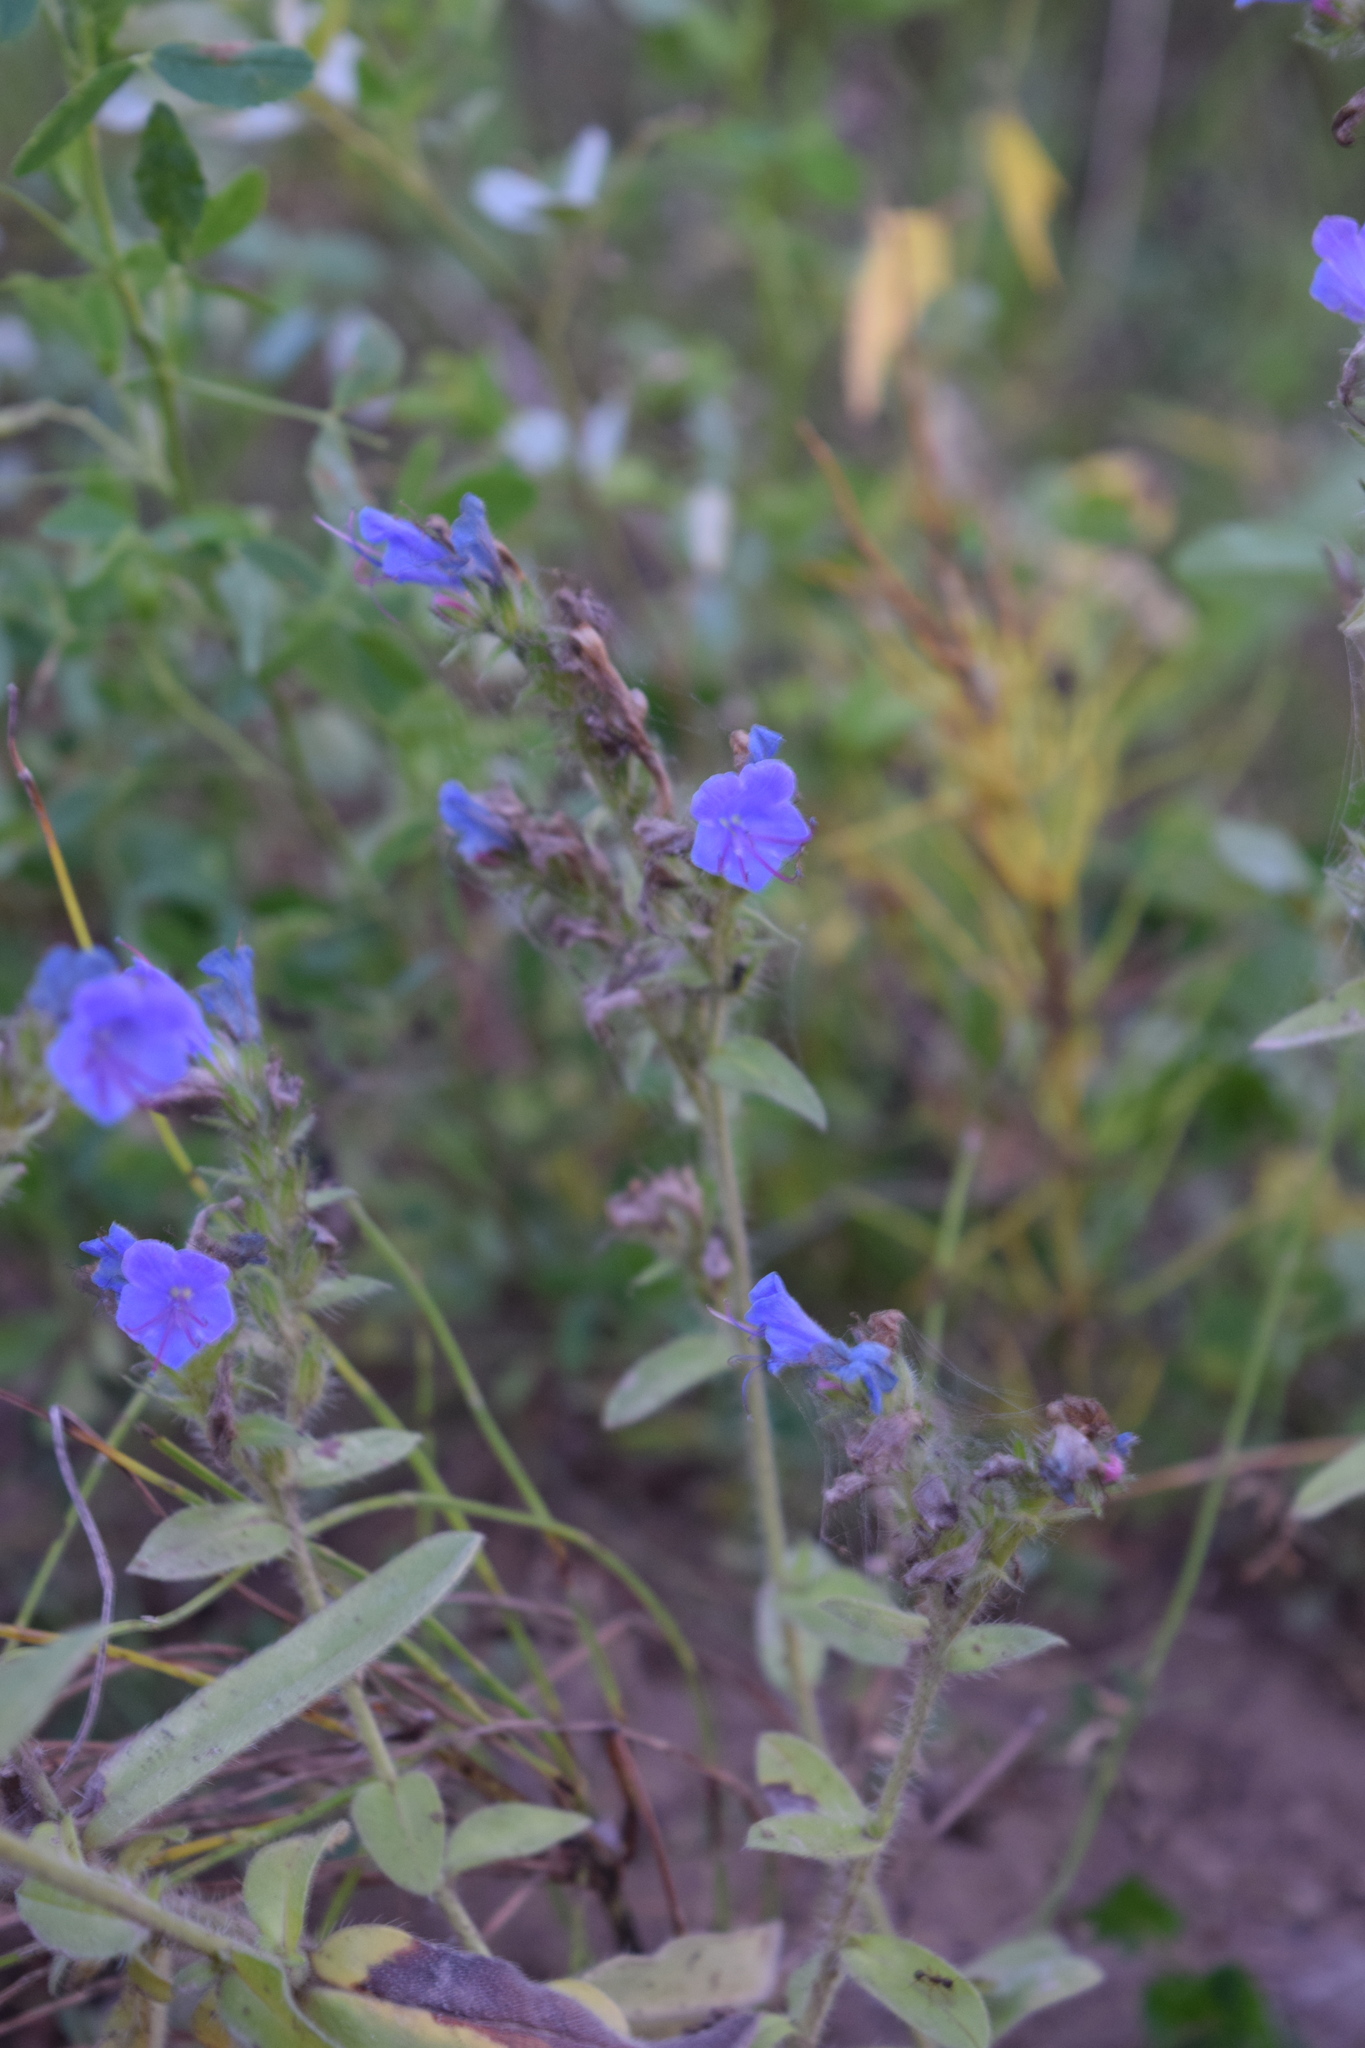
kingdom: Plantae
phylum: Tracheophyta
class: Magnoliopsida
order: Boraginales
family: Boraginaceae
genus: Echium
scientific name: Echium vulgare
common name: Common viper's bugloss
